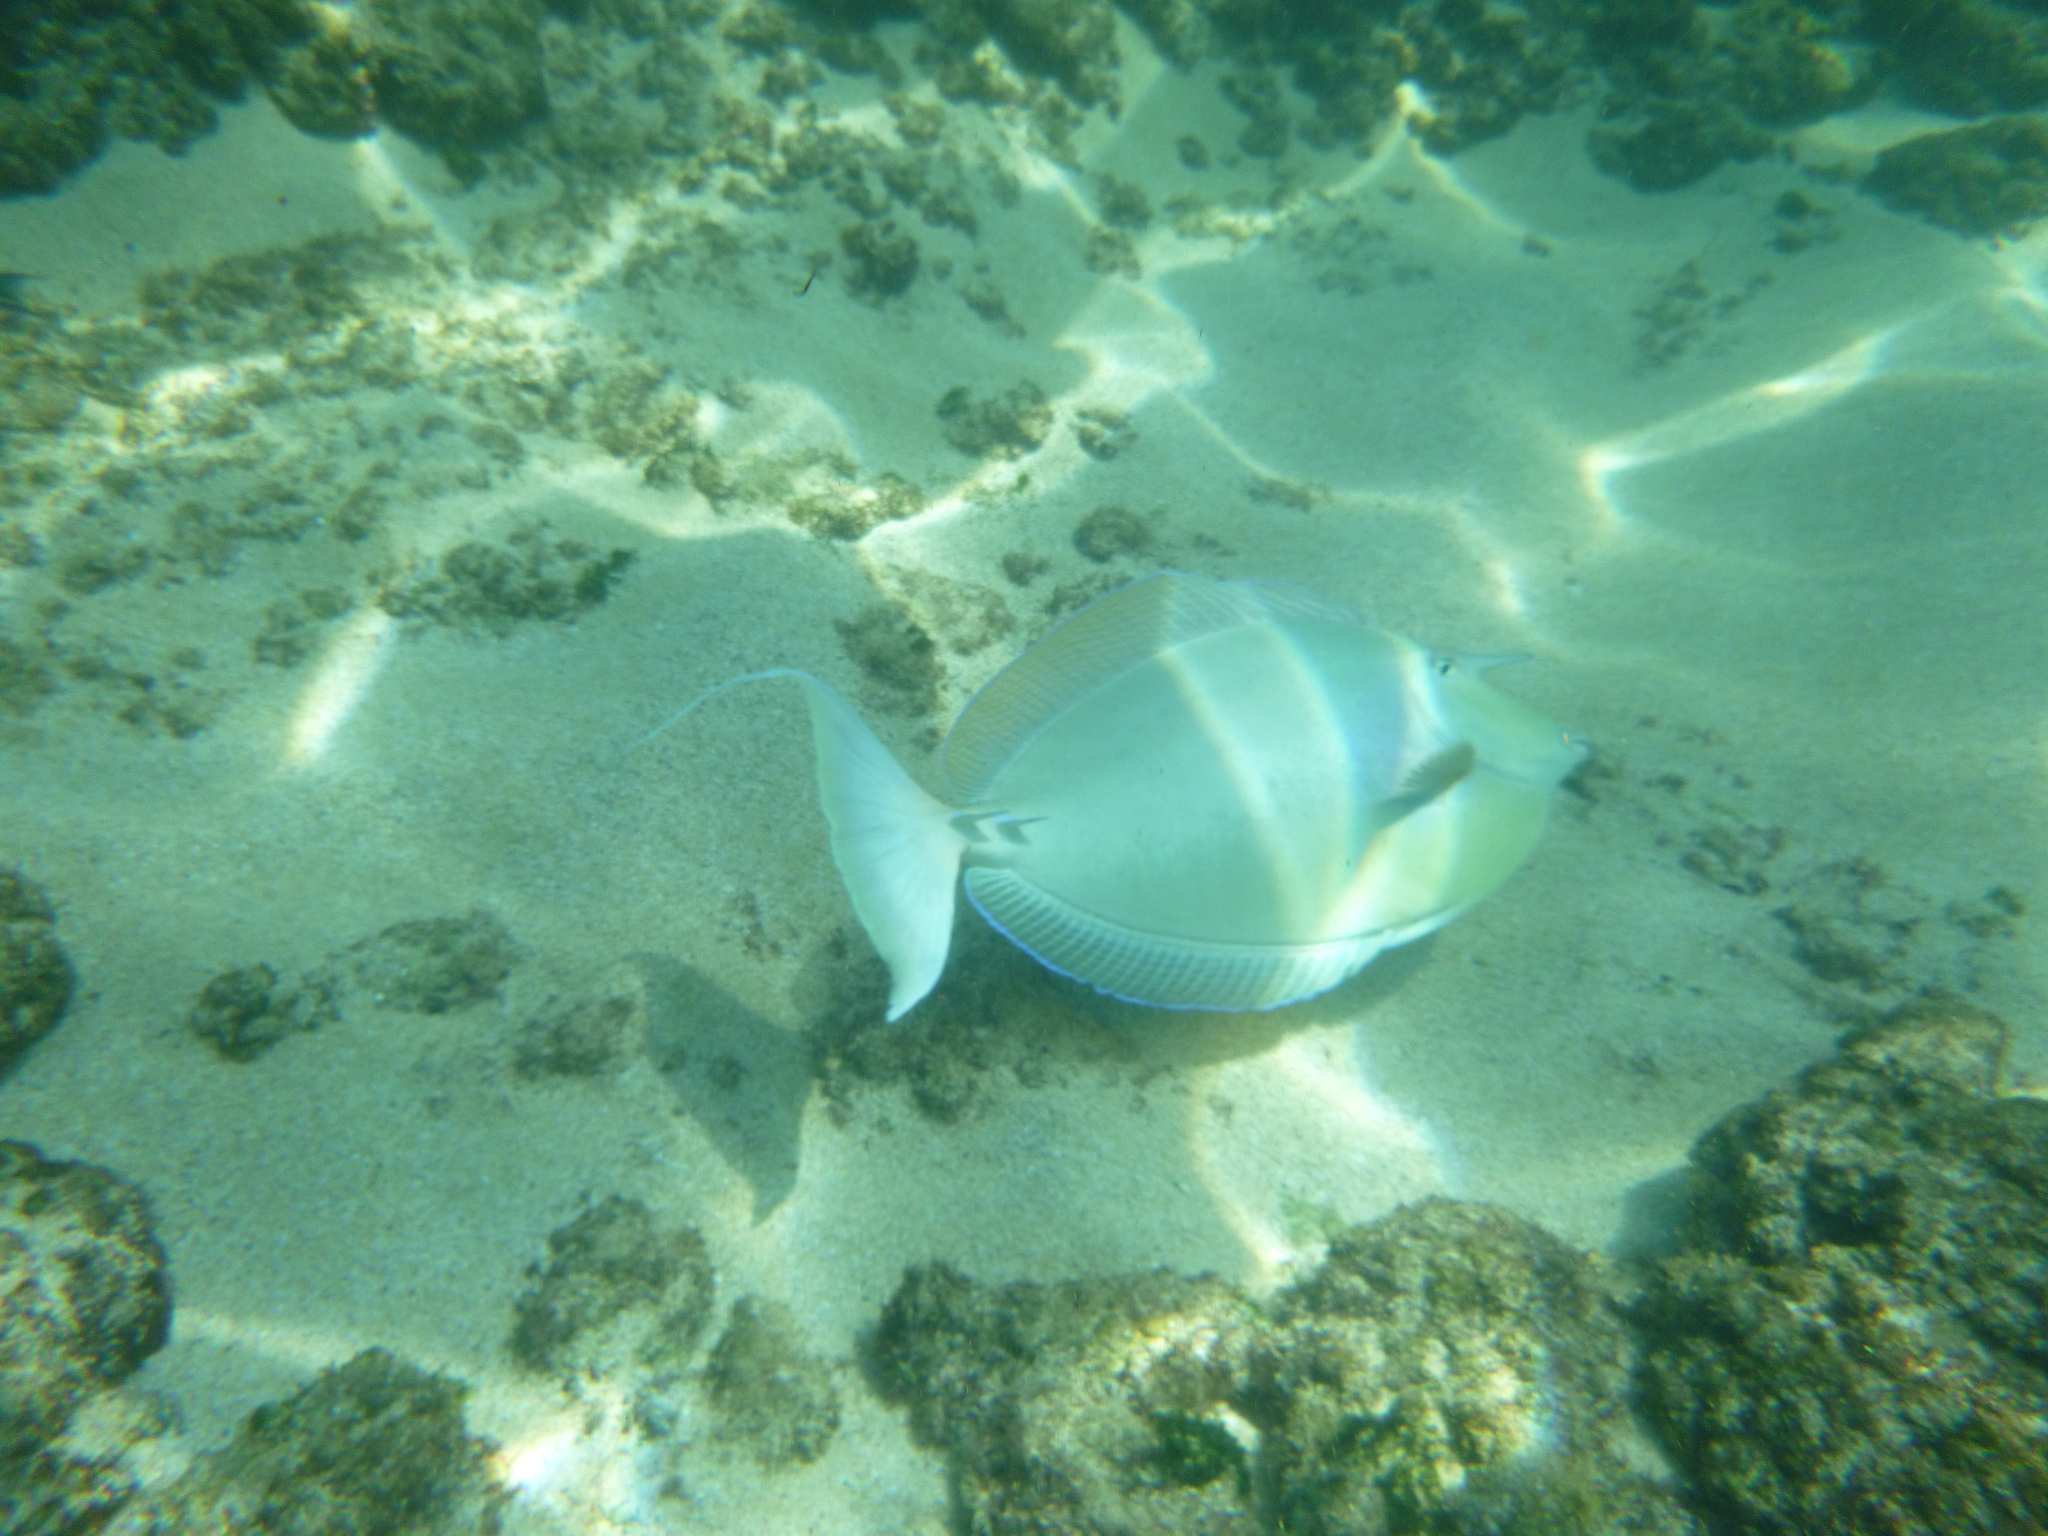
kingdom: Animalia
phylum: Chordata
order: Perciformes
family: Acanthuridae
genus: Naso
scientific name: Naso unicornis
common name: Bluespine unicornfish
